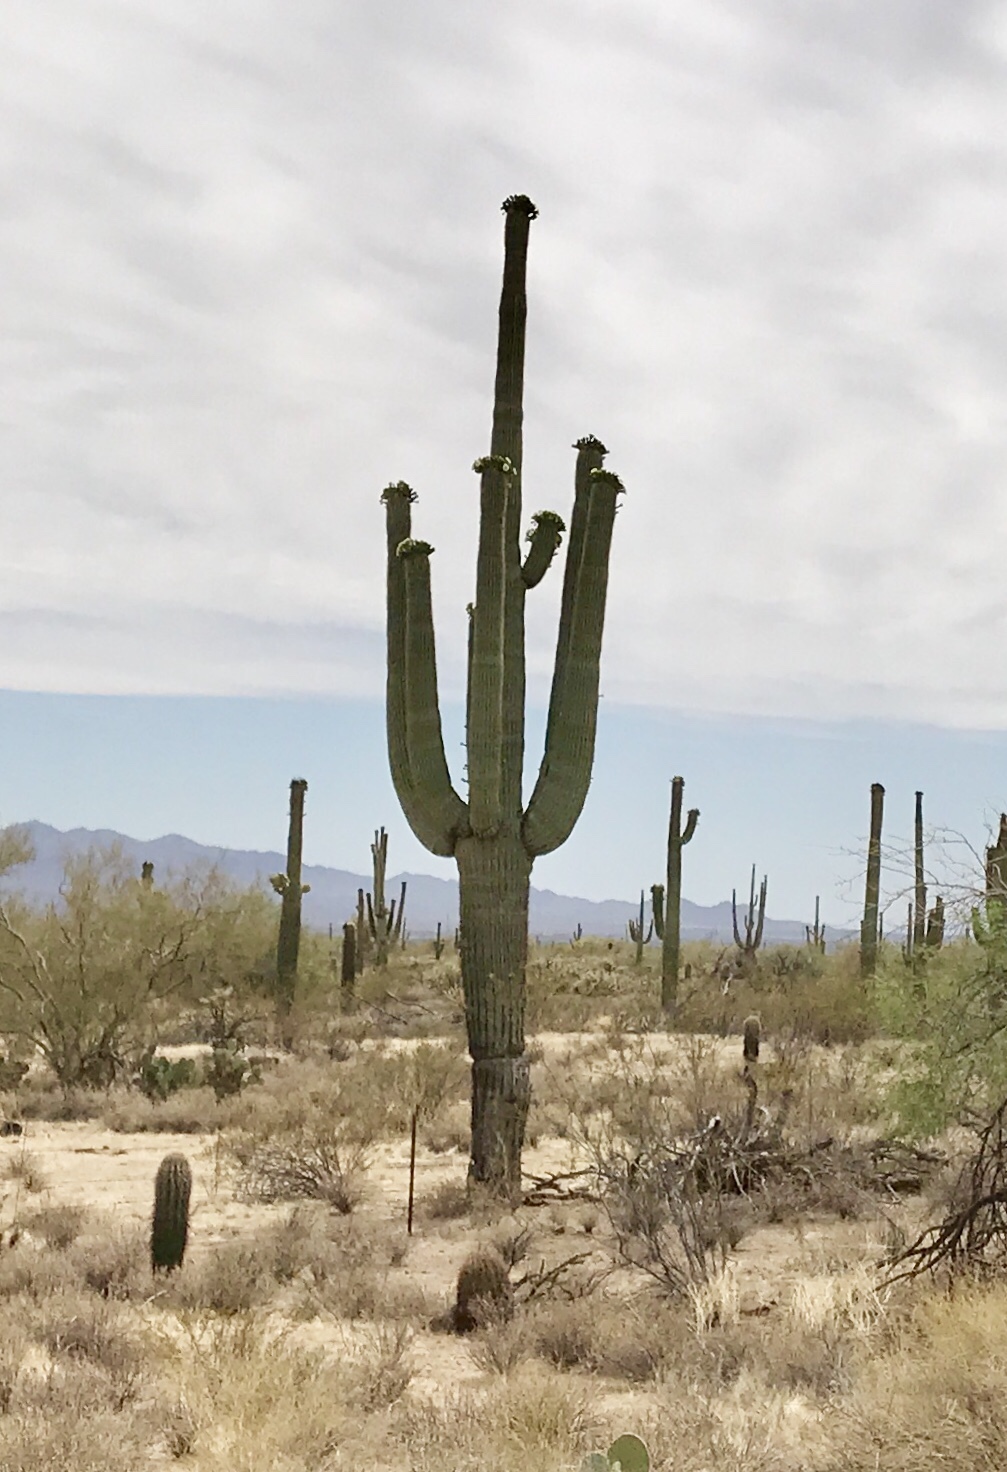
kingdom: Plantae
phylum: Tracheophyta
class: Magnoliopsida
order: Caryophyllales
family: Cactaceae
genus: Carnegiea
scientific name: Carnegiea gigantea
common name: Saguaro
